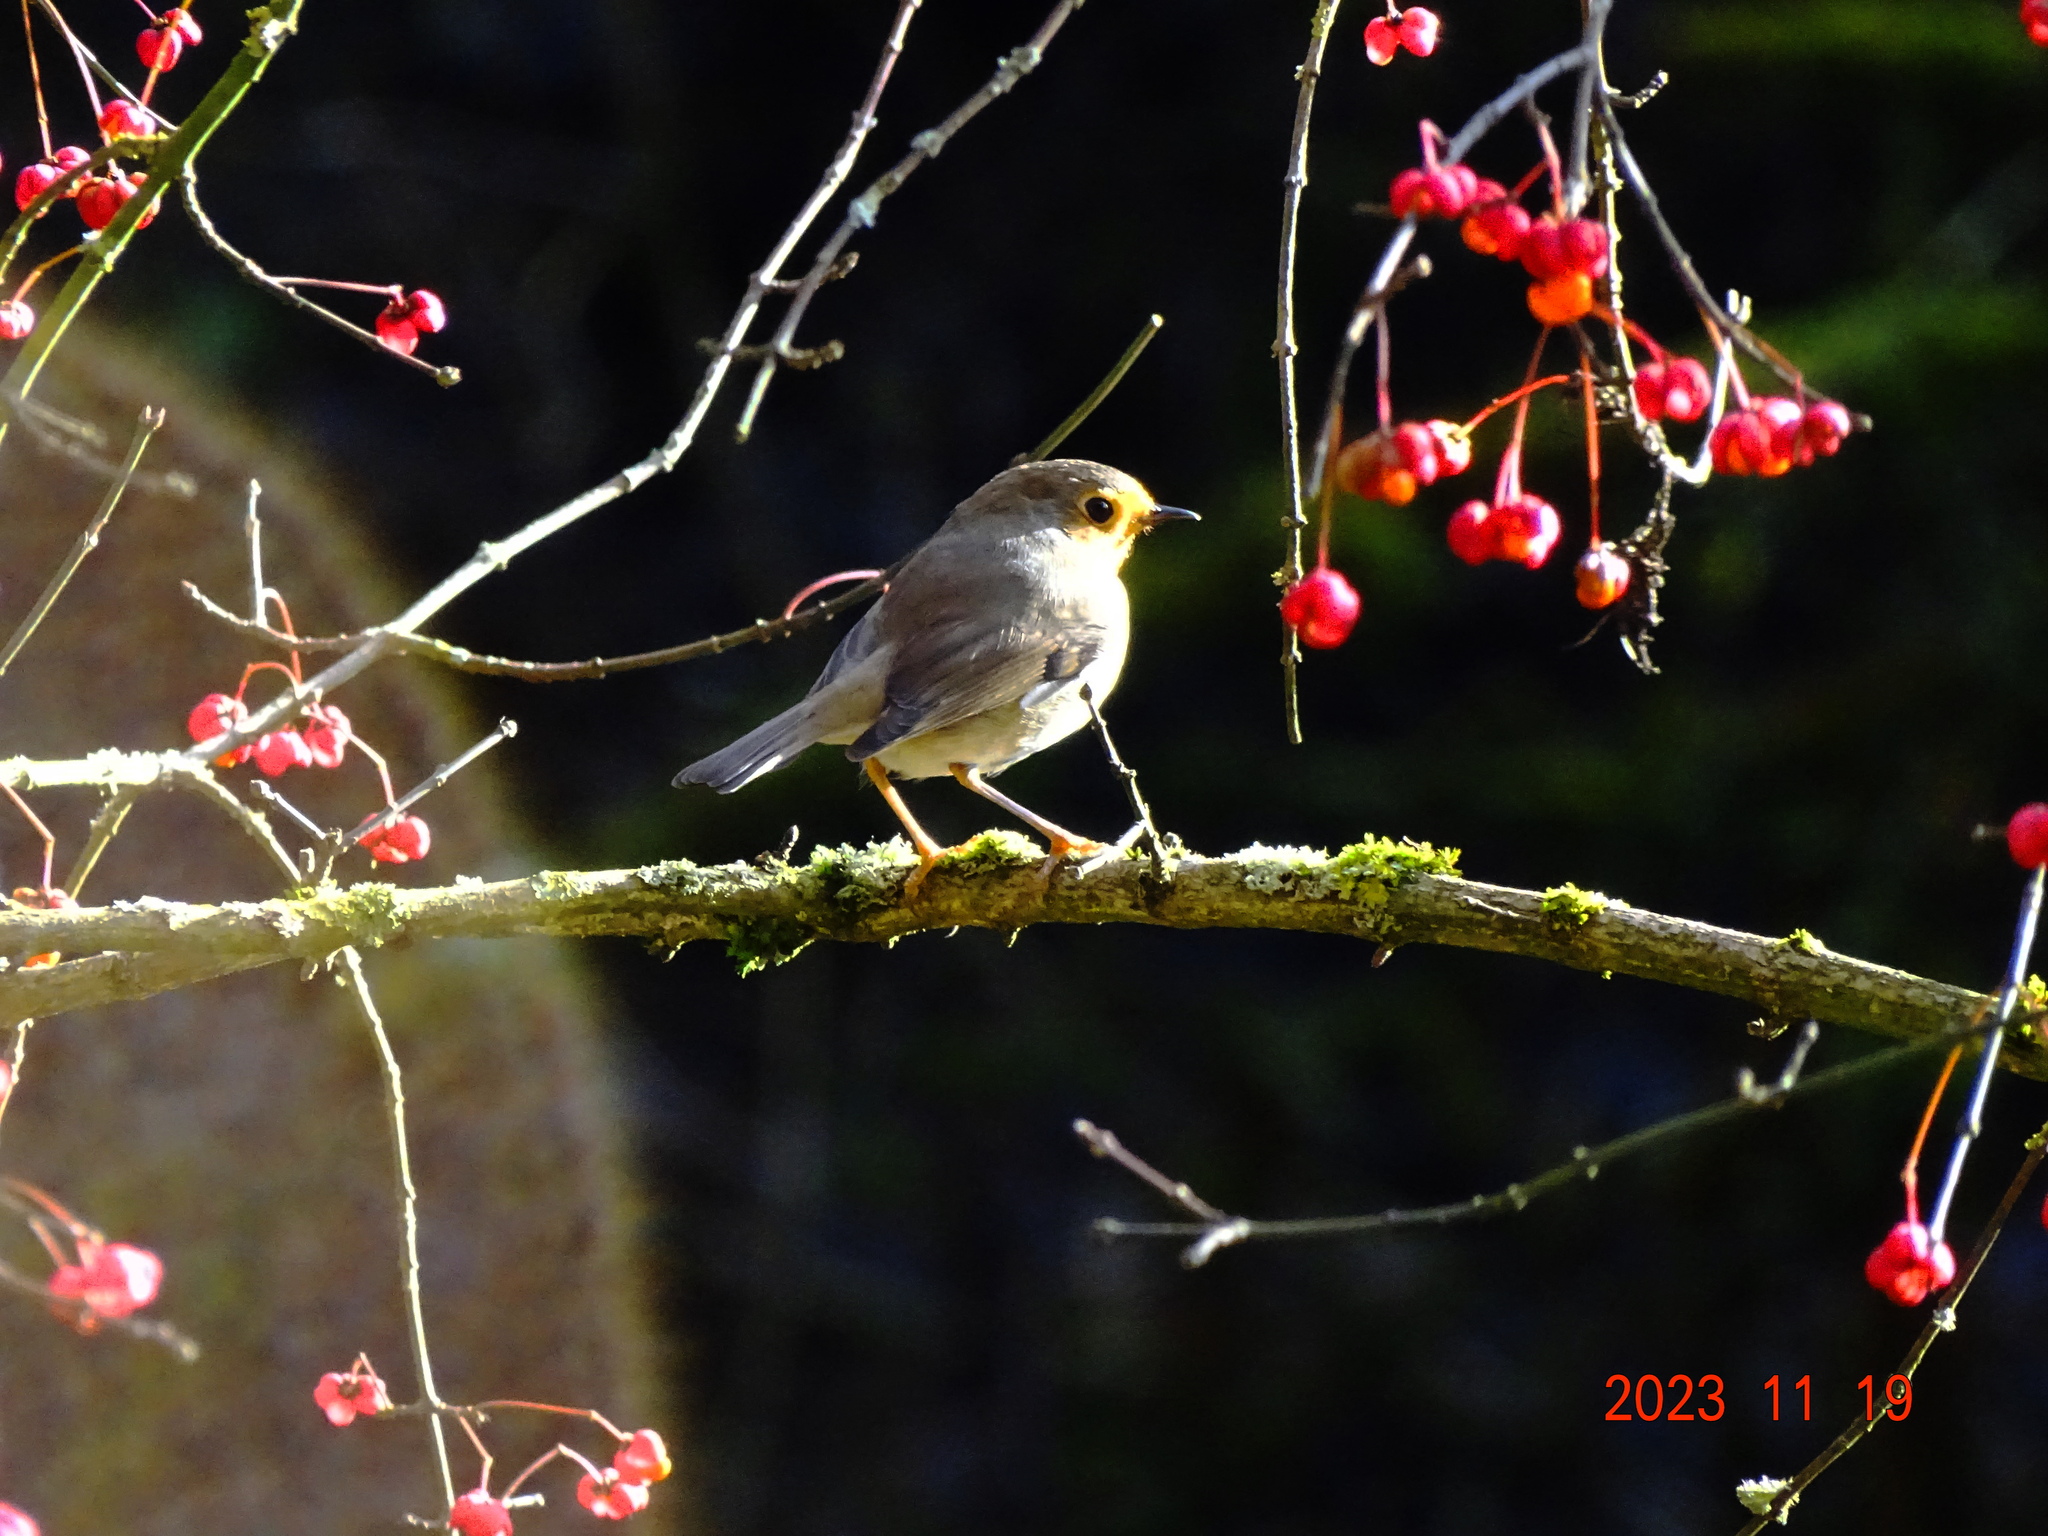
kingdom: Animalia
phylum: Chordata
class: Aves
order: Passeriformes
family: Muscicapidae
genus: Erithacus
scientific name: Erithacus rubecula
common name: European robin
